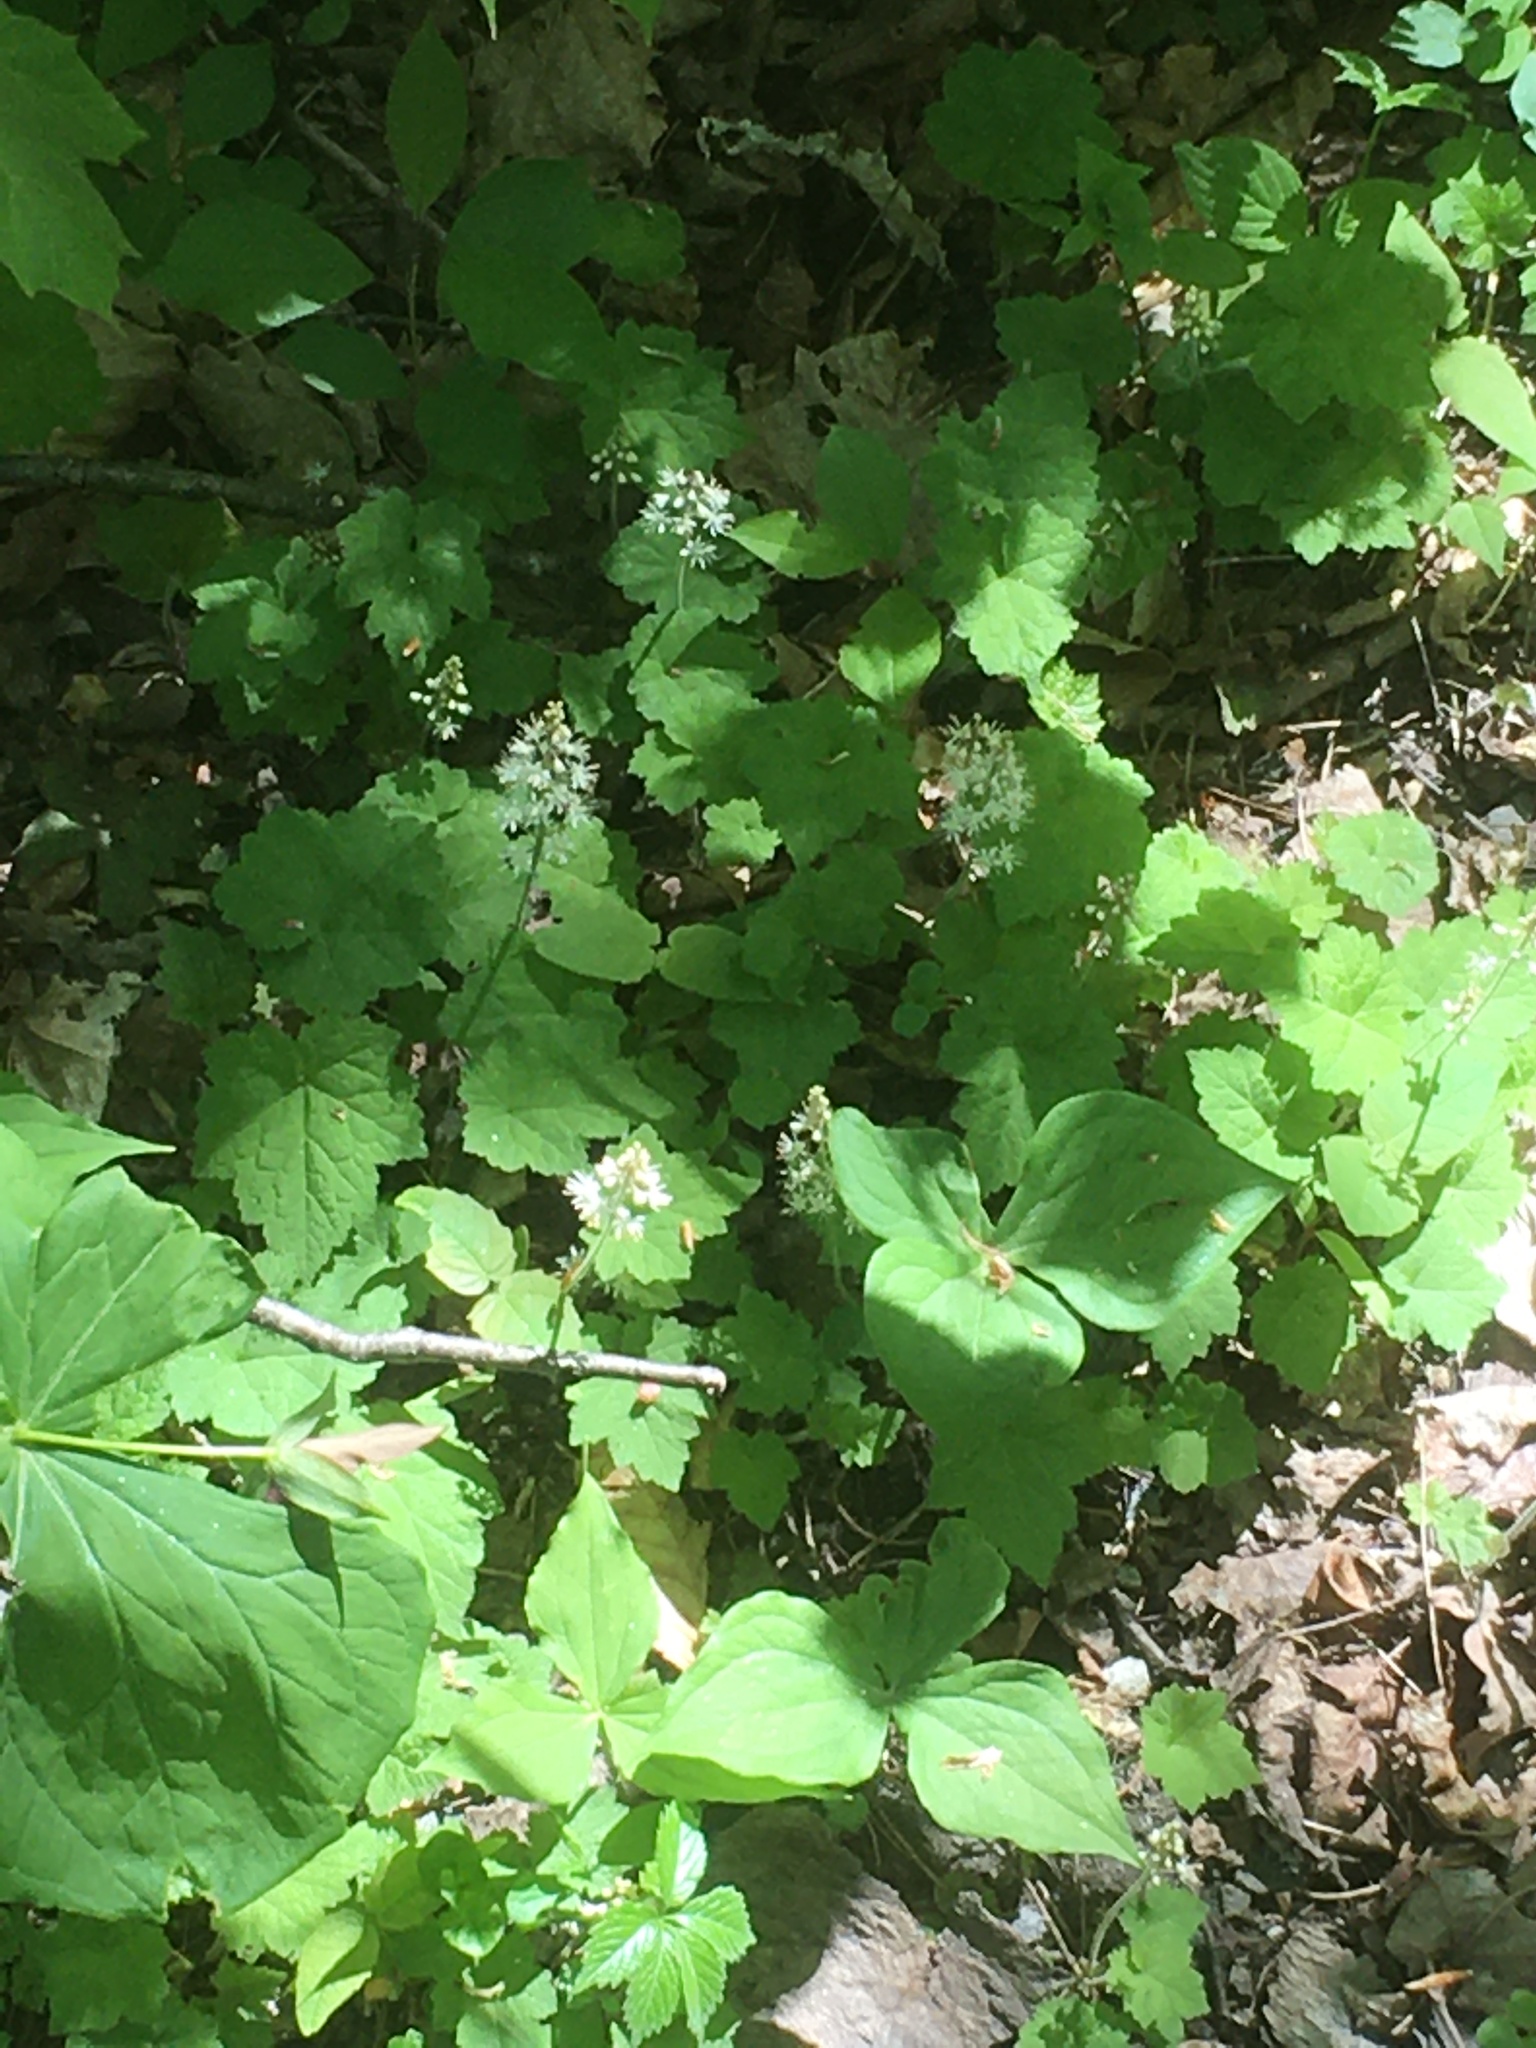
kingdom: Plantae
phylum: Tracheophyta
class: Magnoliopsida
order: Saxifragales
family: Saxifragaceae
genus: Tiarella
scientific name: Tiarella stolonifera
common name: Stoloniferous foamflower
